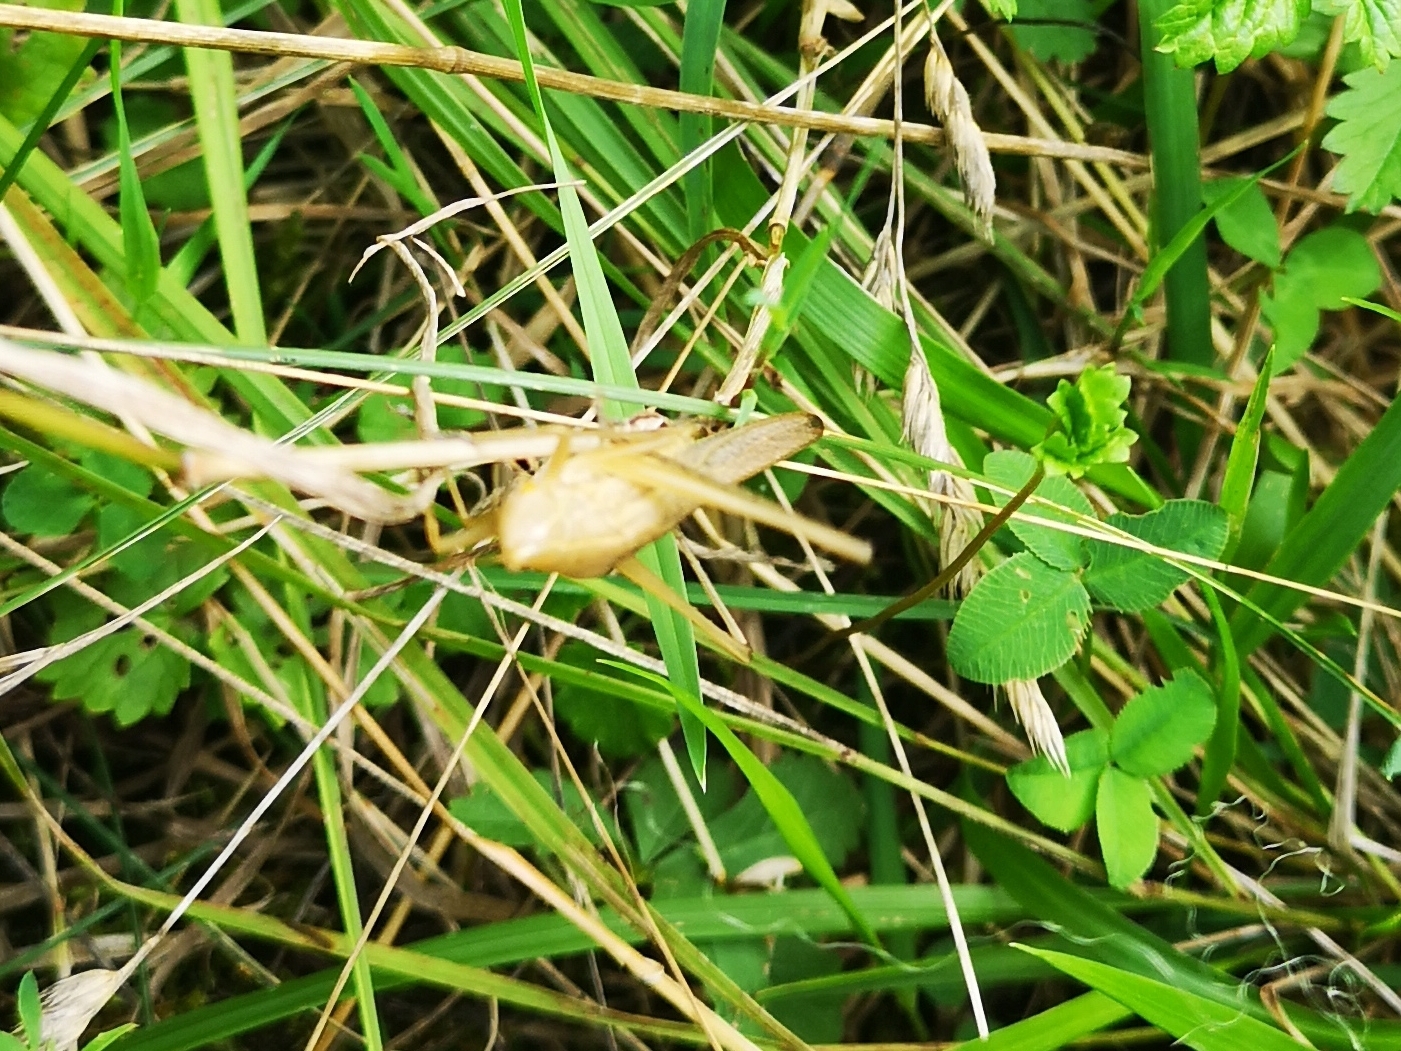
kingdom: Animalia
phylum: Arthropoda
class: Insecta
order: Orthoptera
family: Tettigoniidae
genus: Ruspolia
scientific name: Ruspolia nitidula
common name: Large conehead
